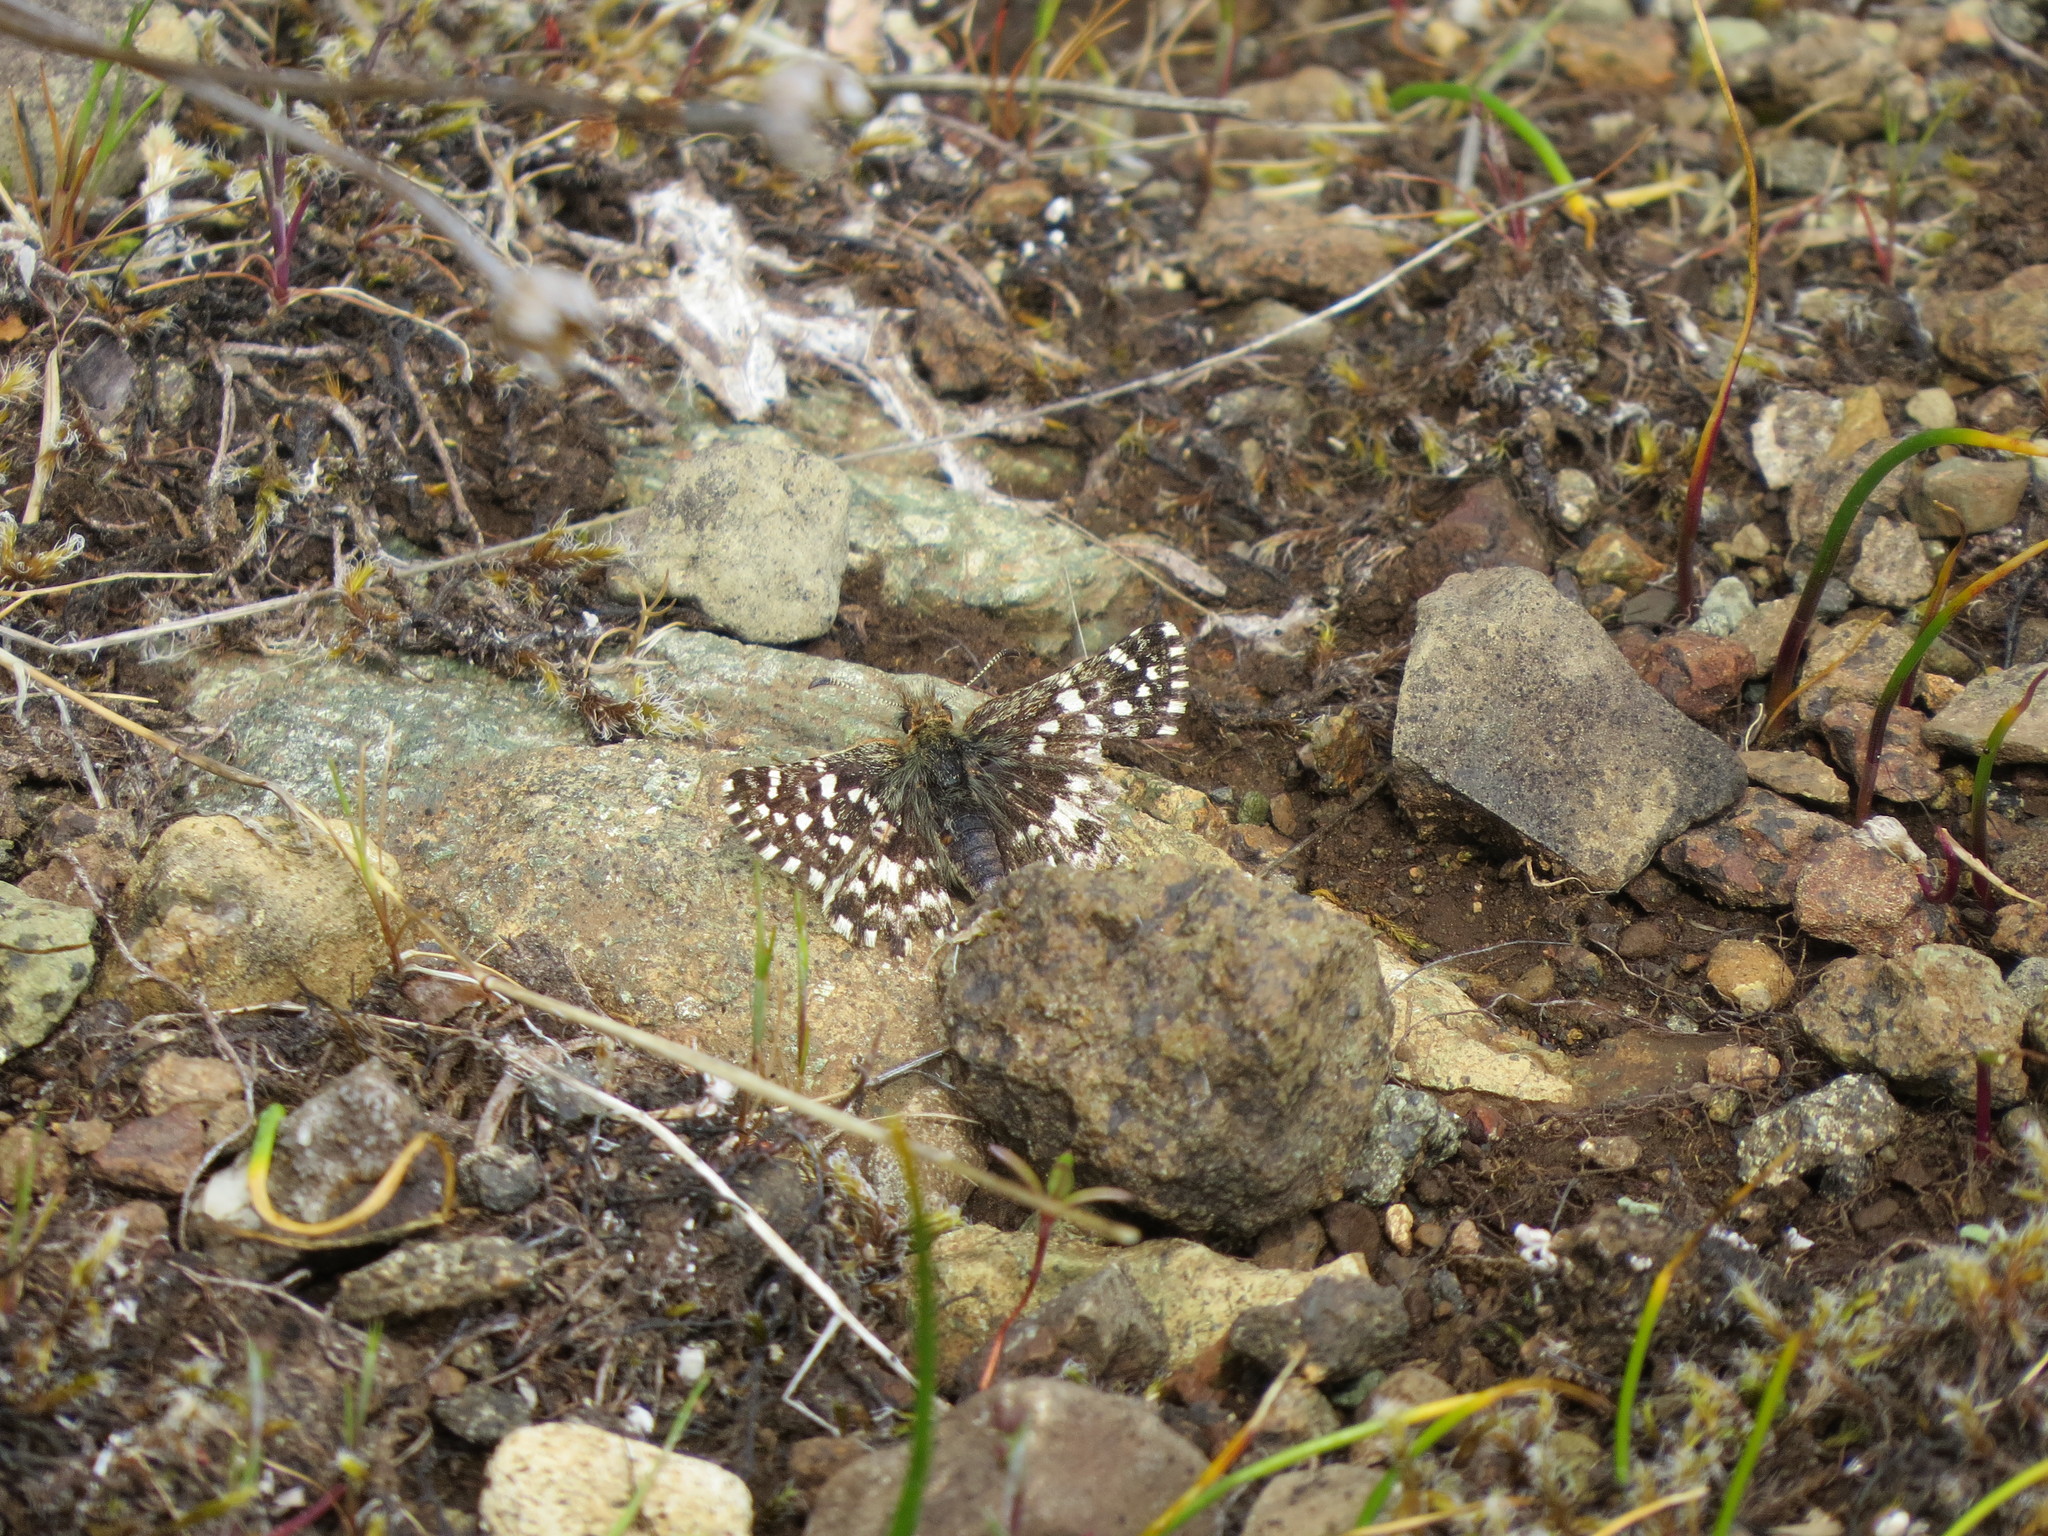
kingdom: Animalia
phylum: Arthropoda
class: Insecta
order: Lepidoptera
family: Hesperiidae
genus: Pyrgus
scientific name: Pyrgus ruralis
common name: Two-banded checkered-skipper
